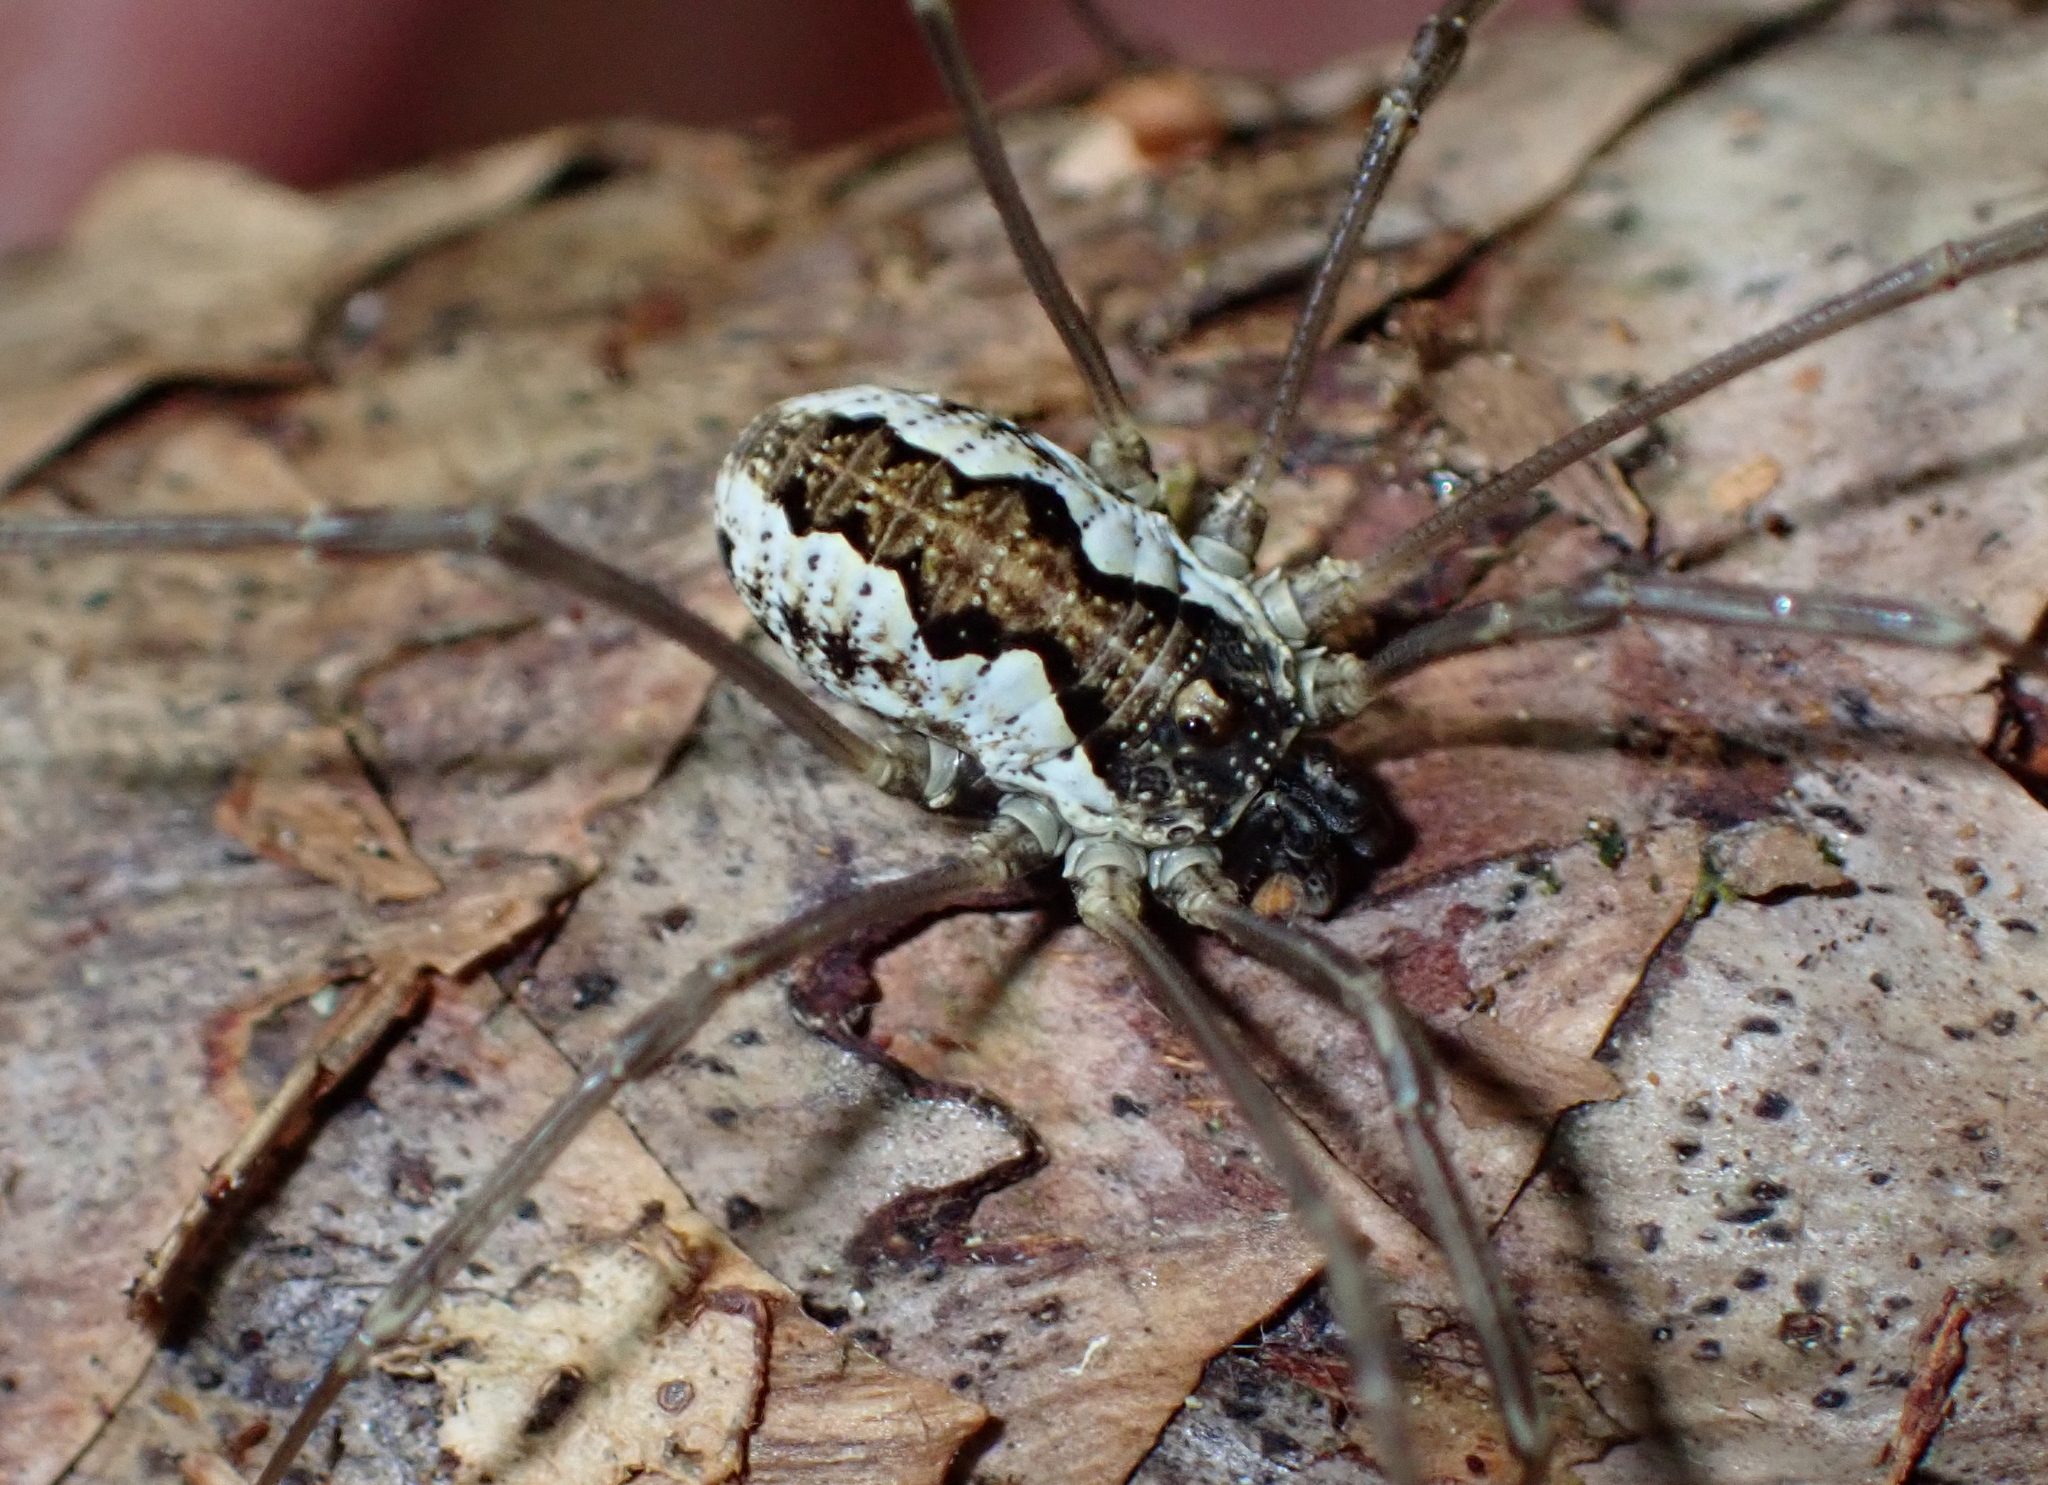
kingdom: Animalia
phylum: Arthropoda
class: Arachnida
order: Opiliones
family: Phalangiidae
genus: Mitopus
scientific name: Mitopus morio
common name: Saddleback harvestman
